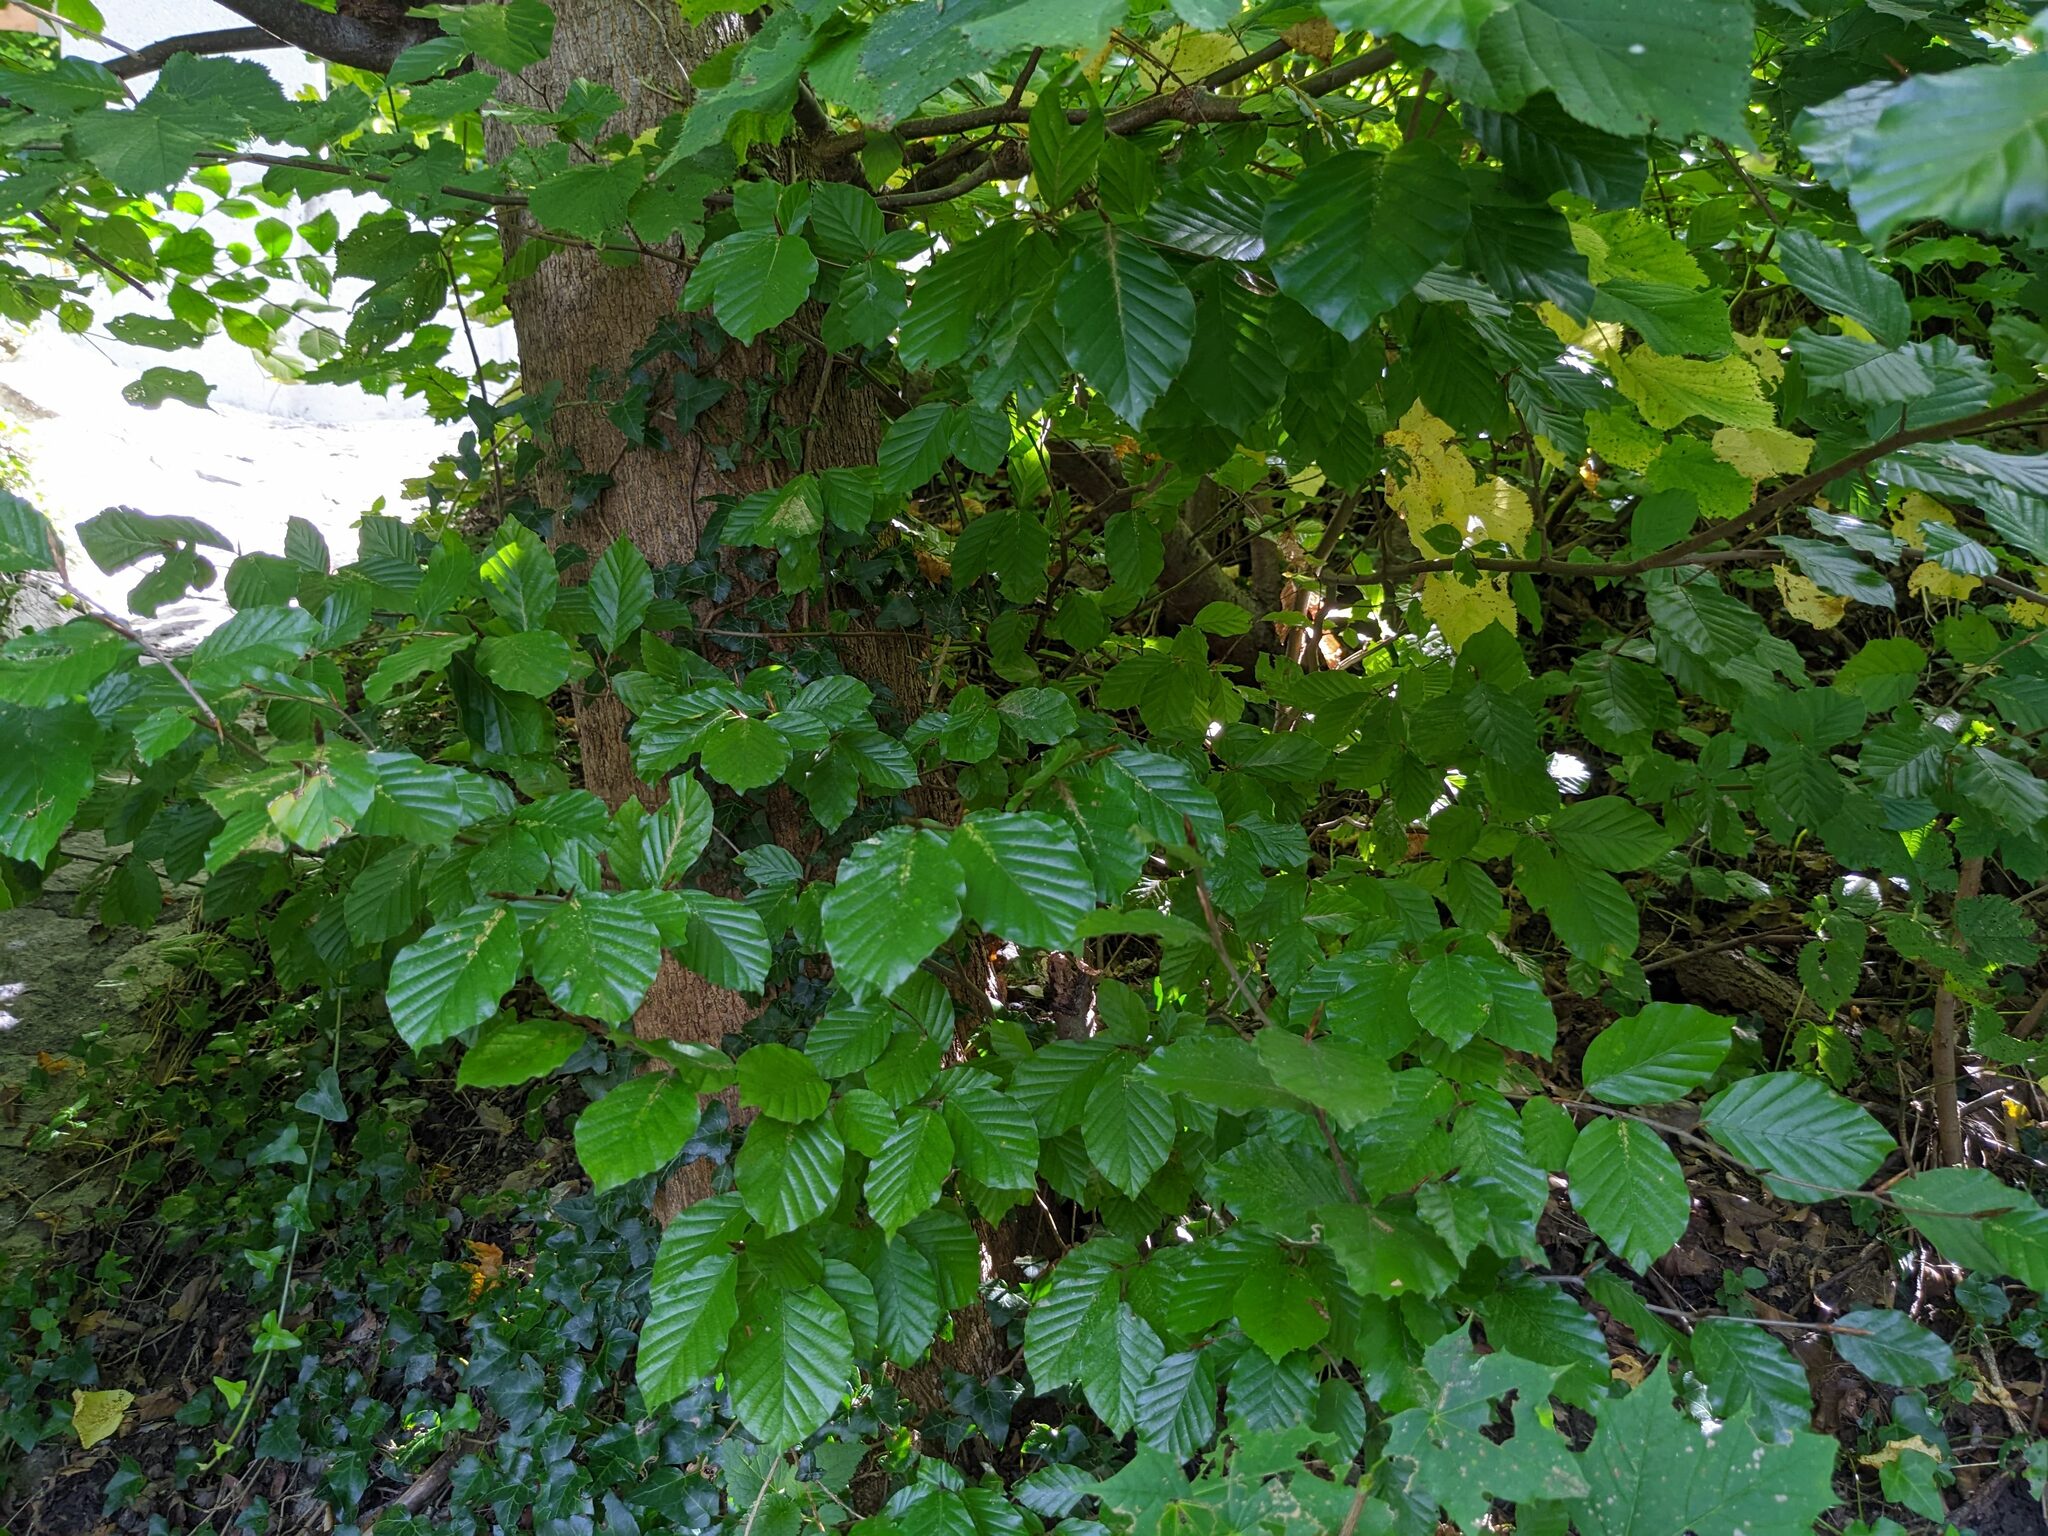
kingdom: Plantae
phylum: Tracheophyta
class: Magnoliopsida
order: Fagales
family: Fagaceae
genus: Fagus
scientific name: Fagus sylvatica
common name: Beech
